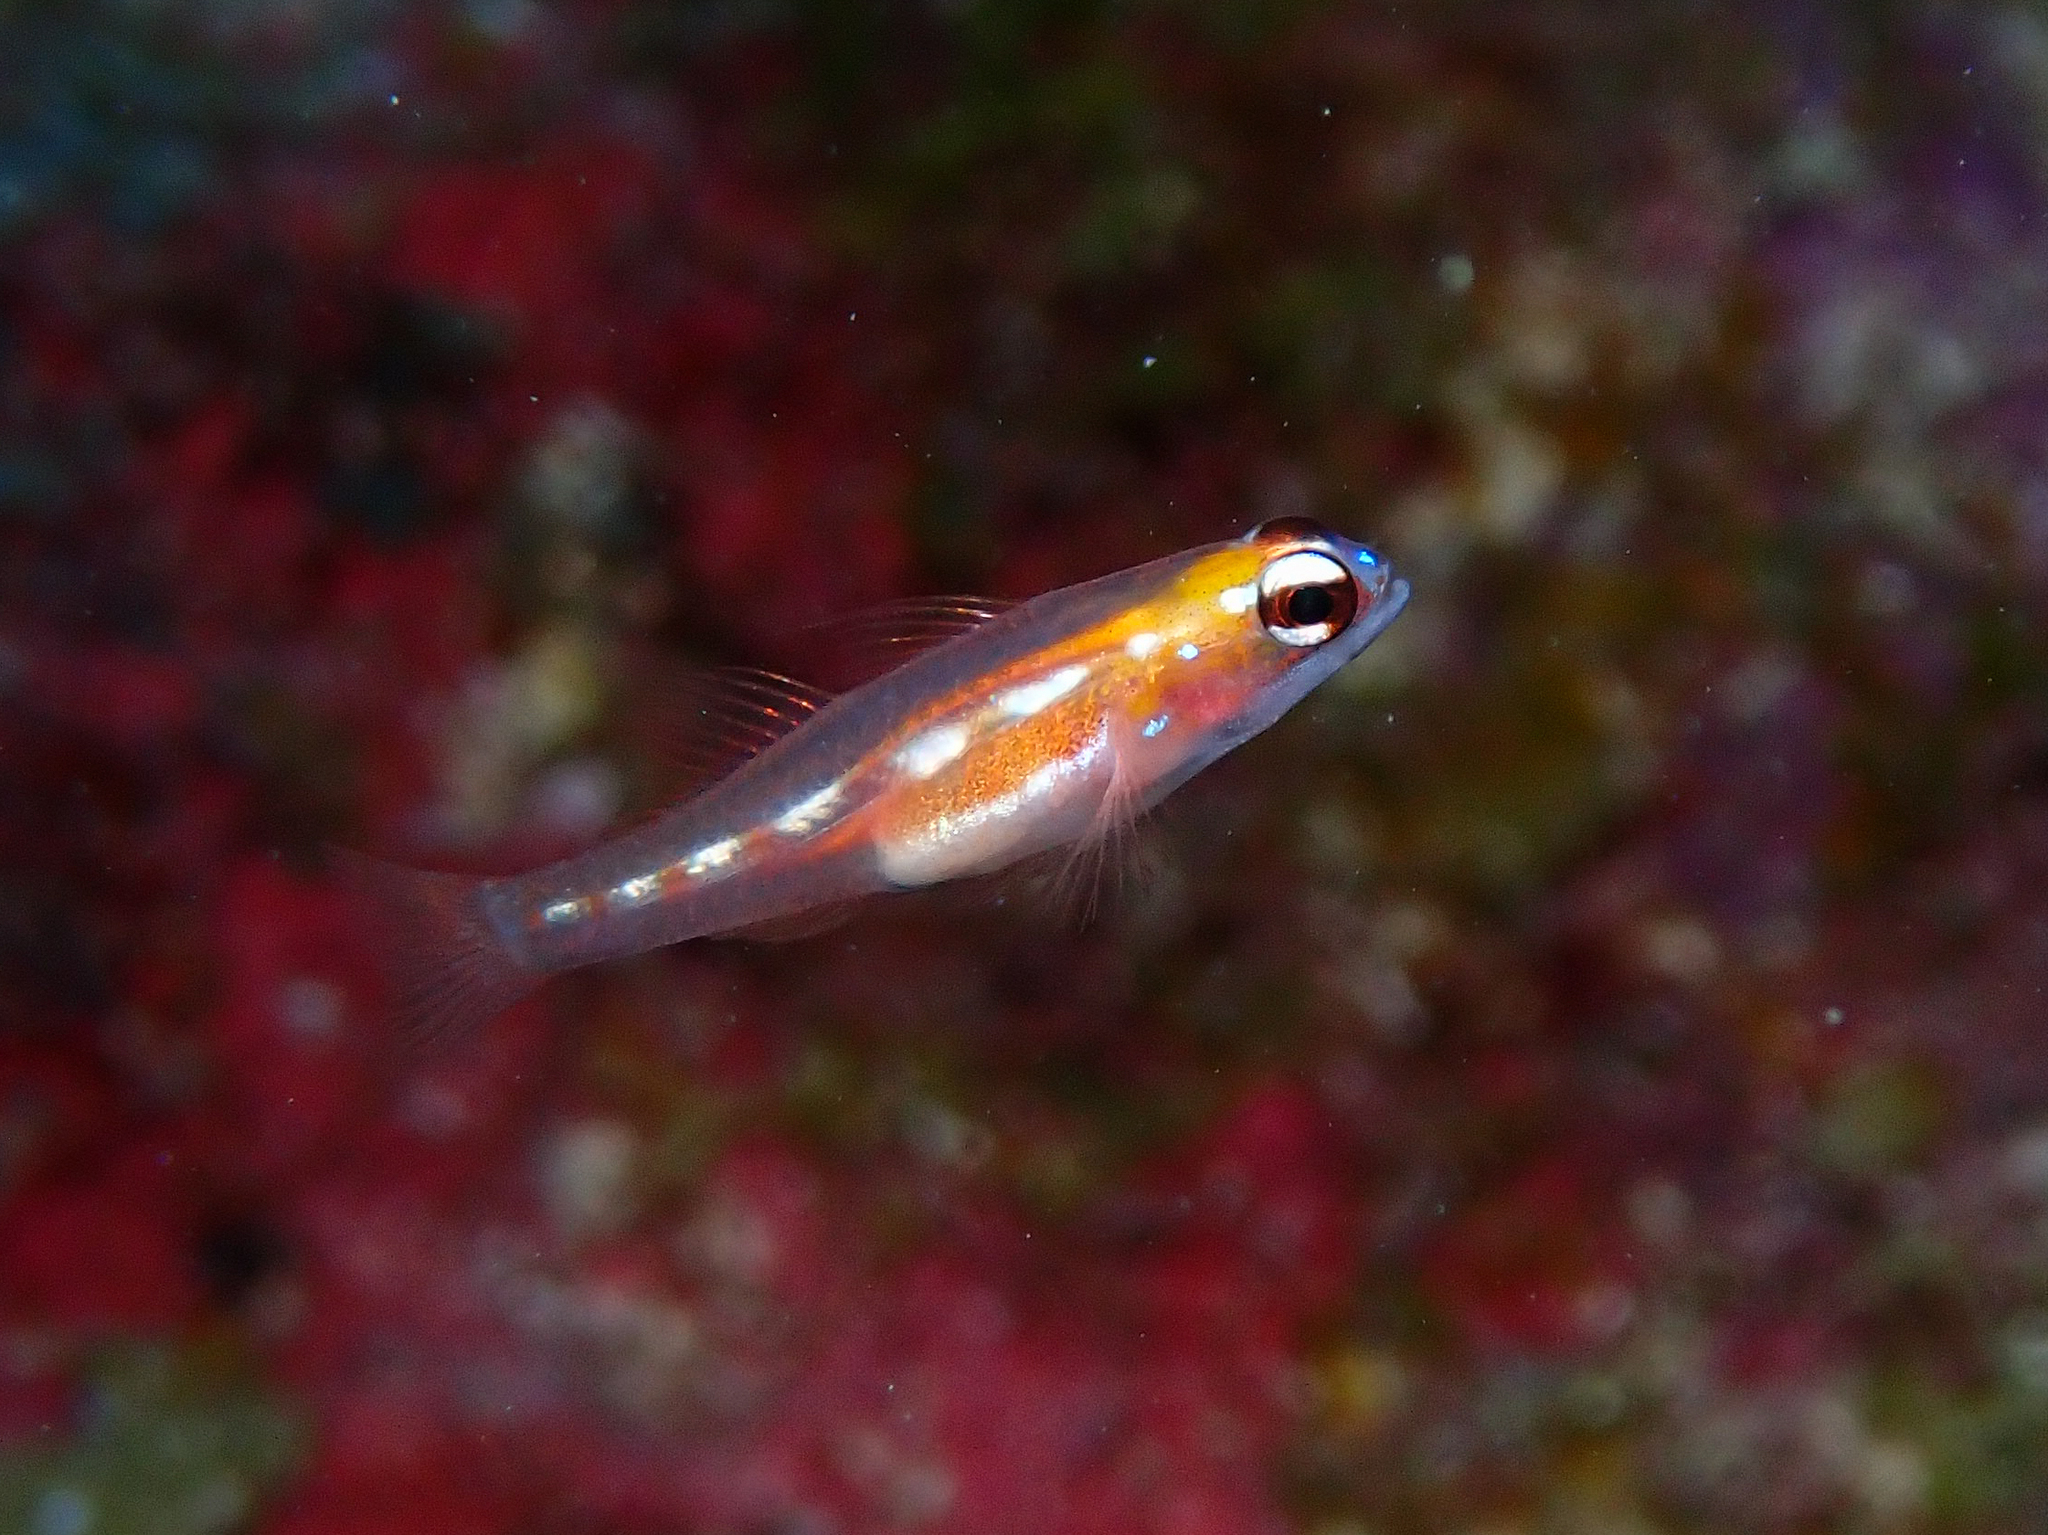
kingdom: Animalia
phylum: Chordata
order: Perciformes
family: Gobiidae
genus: Coryphopterus
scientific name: Coryphopterus personatus
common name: Masked goby
